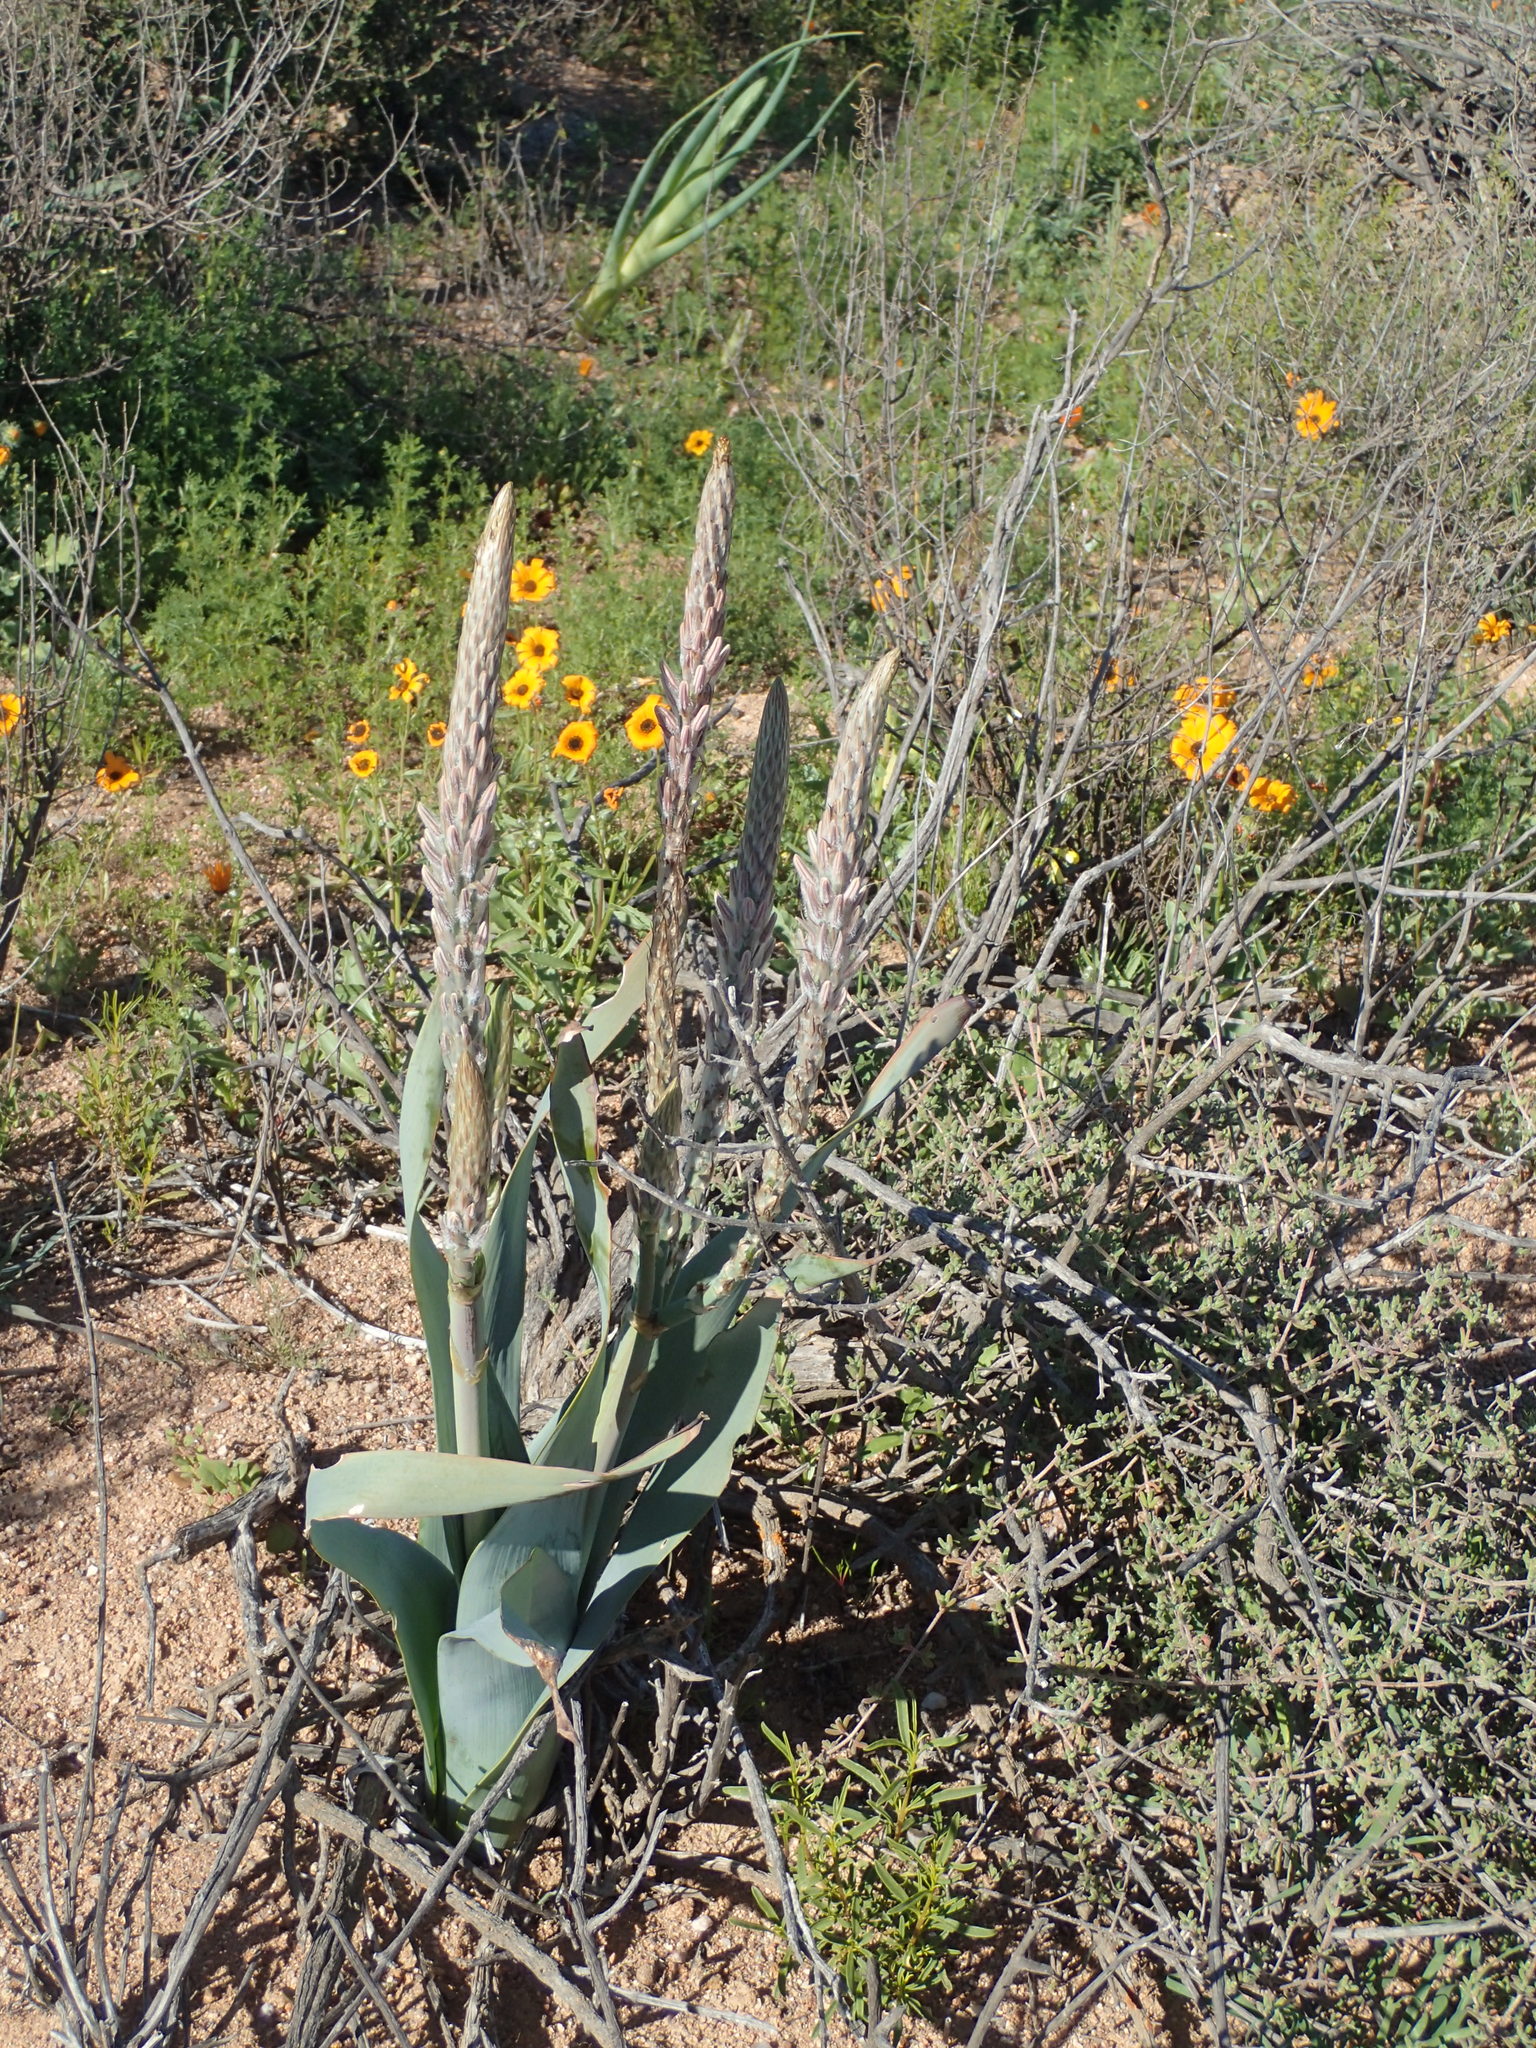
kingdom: Plantae
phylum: Tracheophyta
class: Liliopsida
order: Asparagales
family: Asphodelaceae
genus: Trachyandra
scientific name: Trachyandra falcata
